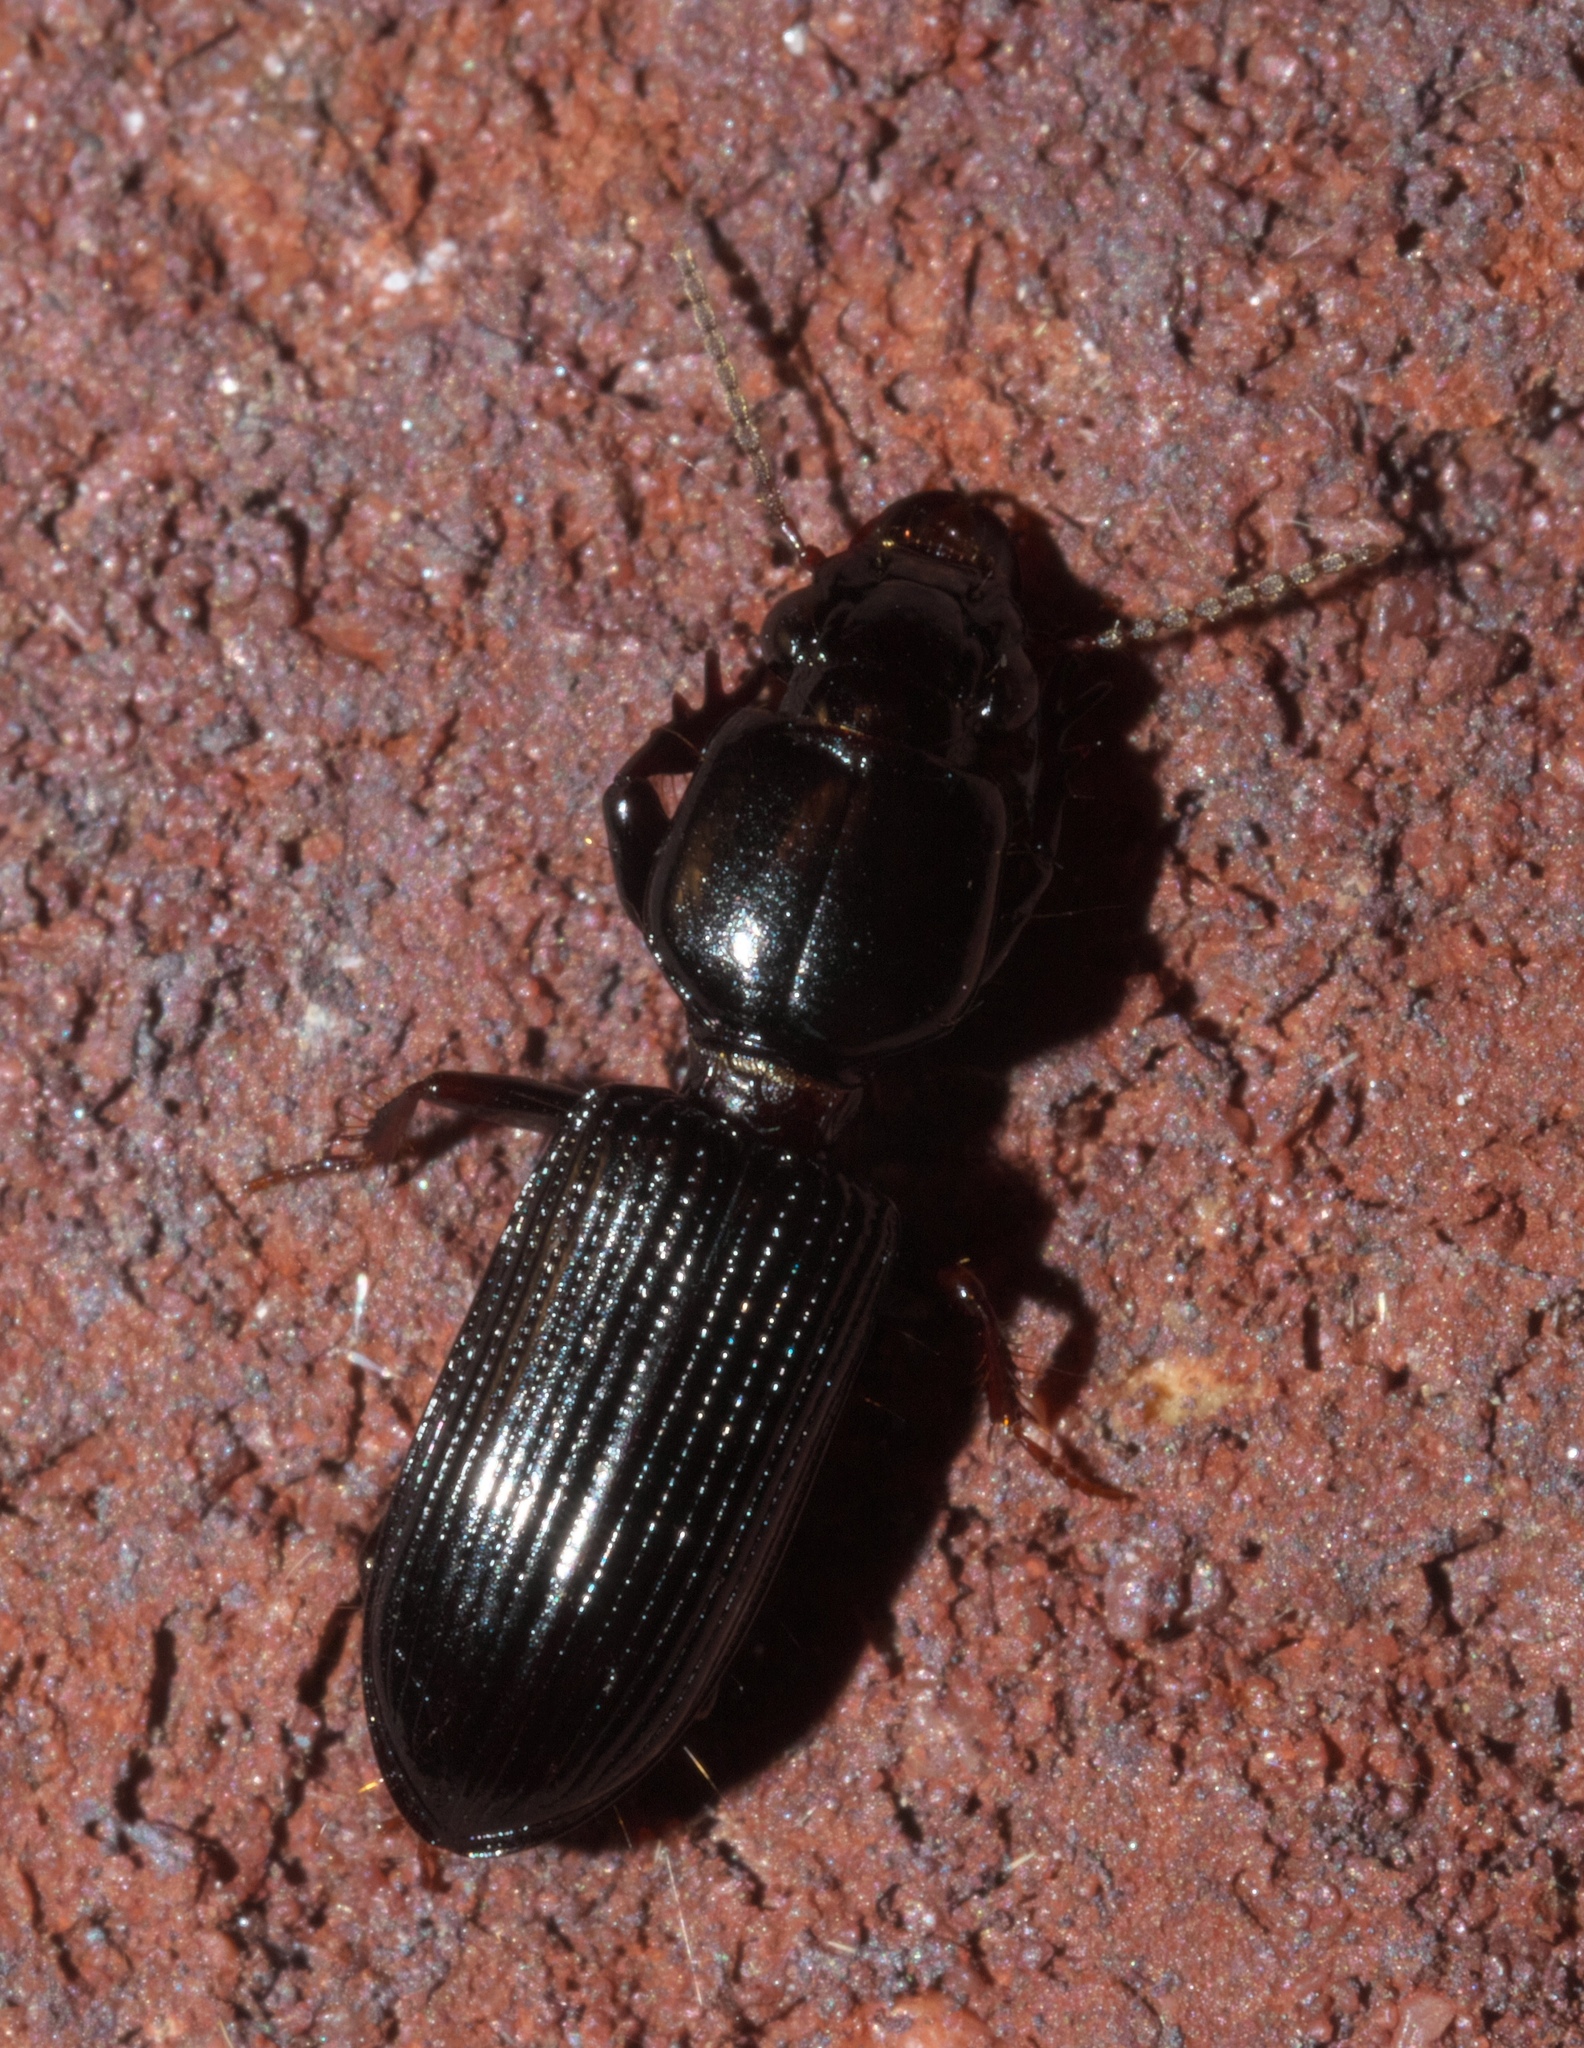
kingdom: Animalia
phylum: Arthropoda
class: Insecta
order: Coleoptera
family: Carabidae
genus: Semiclivina
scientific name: Semiclivina dentipes
